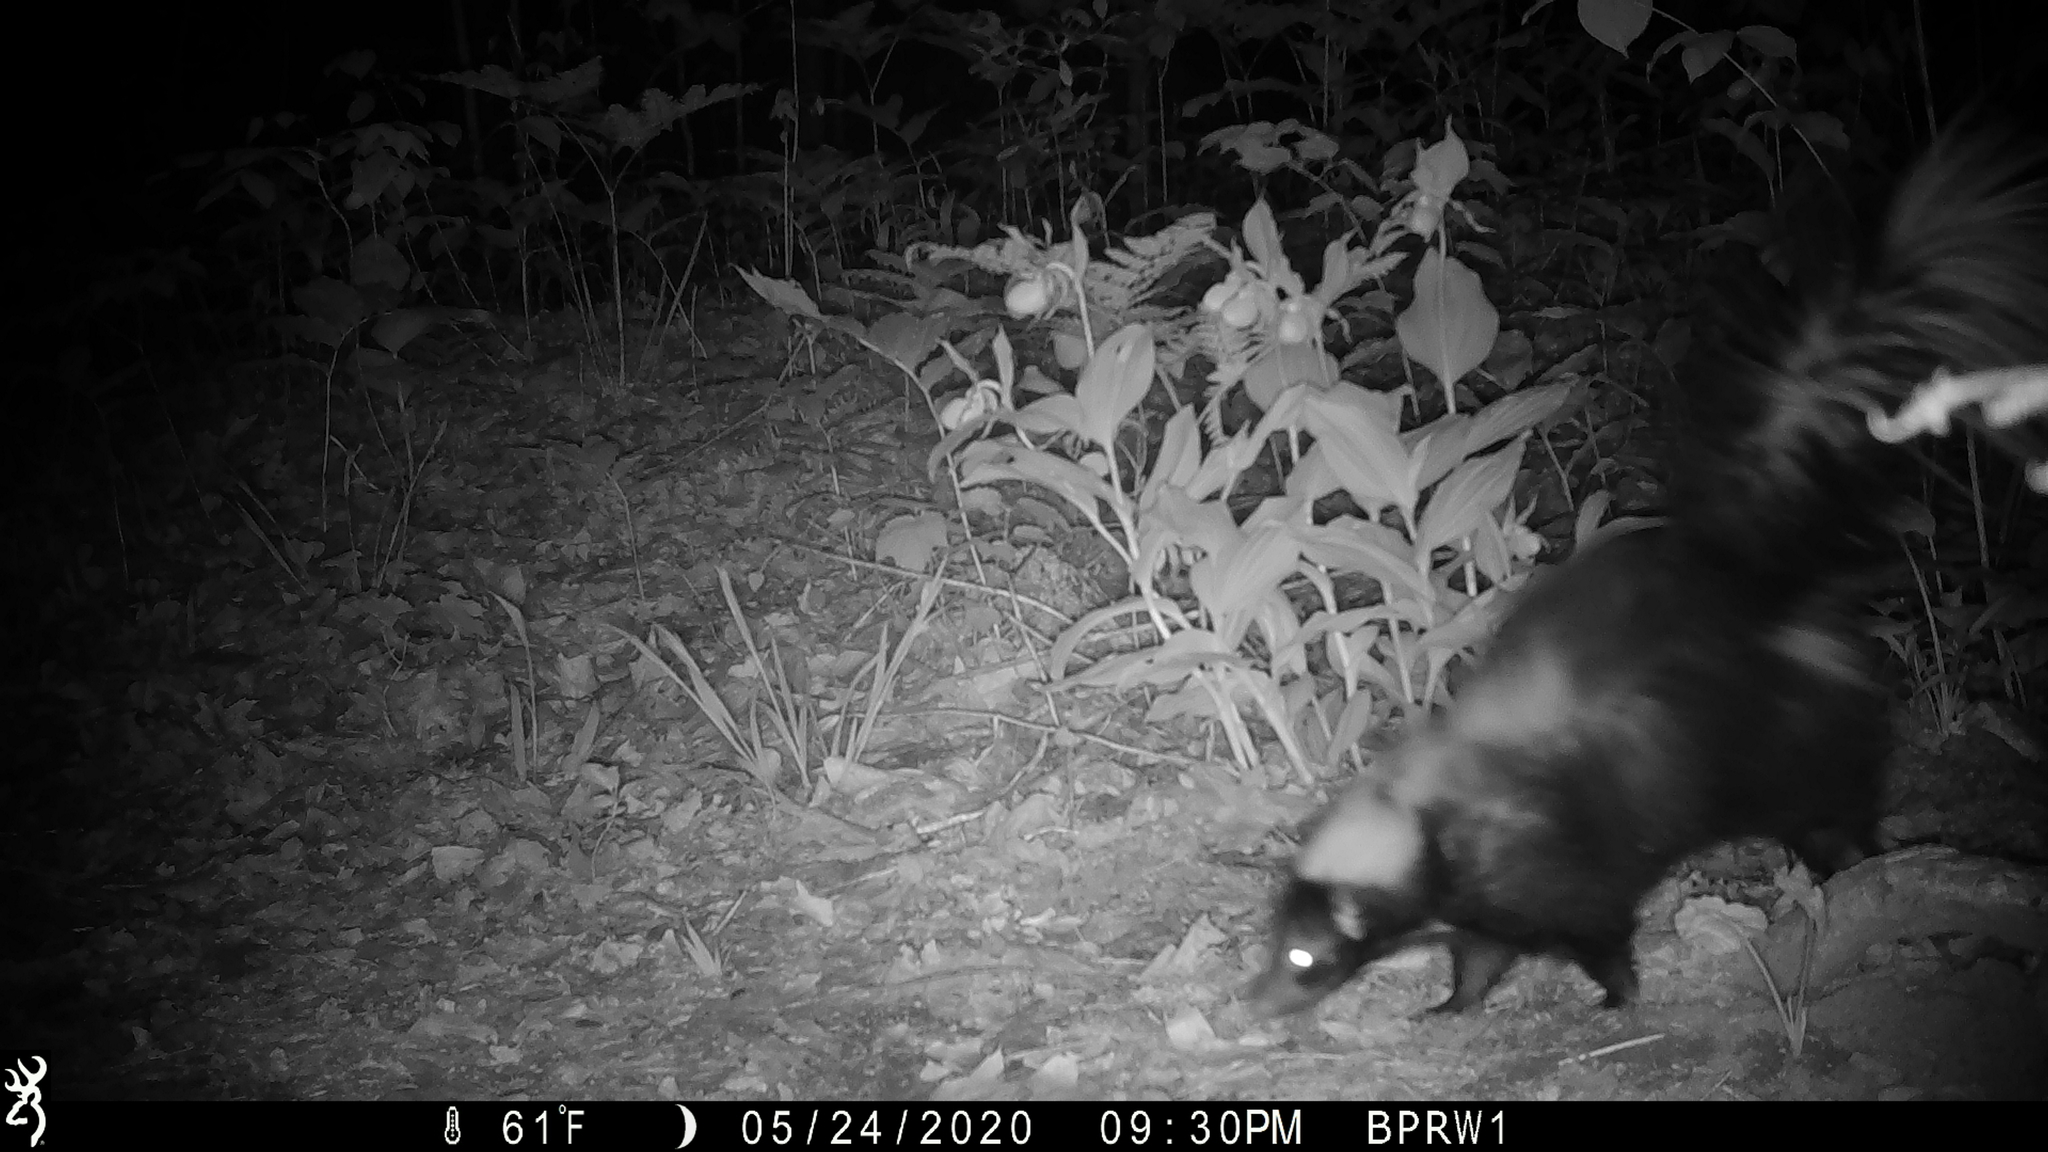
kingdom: Animalia
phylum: Chordata
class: Mammalia
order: Carnivora
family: Mephitidae
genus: Mephitis
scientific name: Mephitis mephitis
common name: Striped skunk
